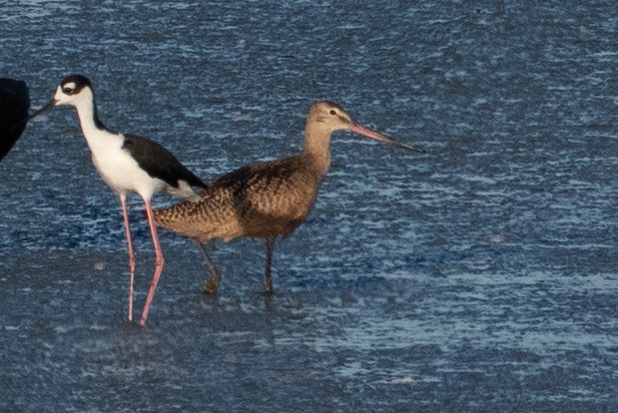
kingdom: Animalia
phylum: Chordata
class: Aves
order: Charadriiformes
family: Scolopacidae
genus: Limosa
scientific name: Limosa fedoa
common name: Marbled godwit
